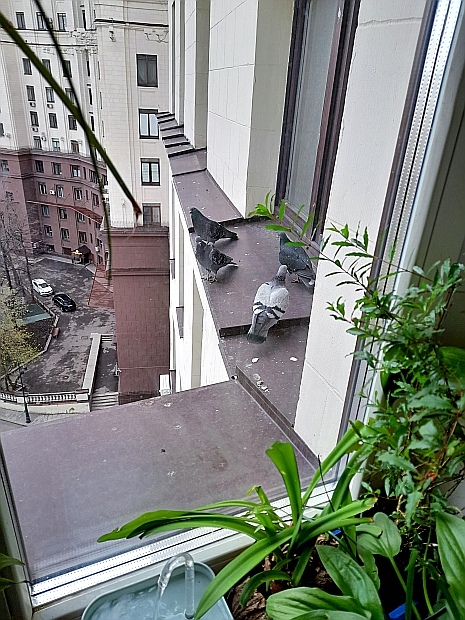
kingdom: Animalia
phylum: Chordata
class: Aves
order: Columbiformes
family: Columbidae
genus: Columba
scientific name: Columba livia
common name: Rock pigeon
